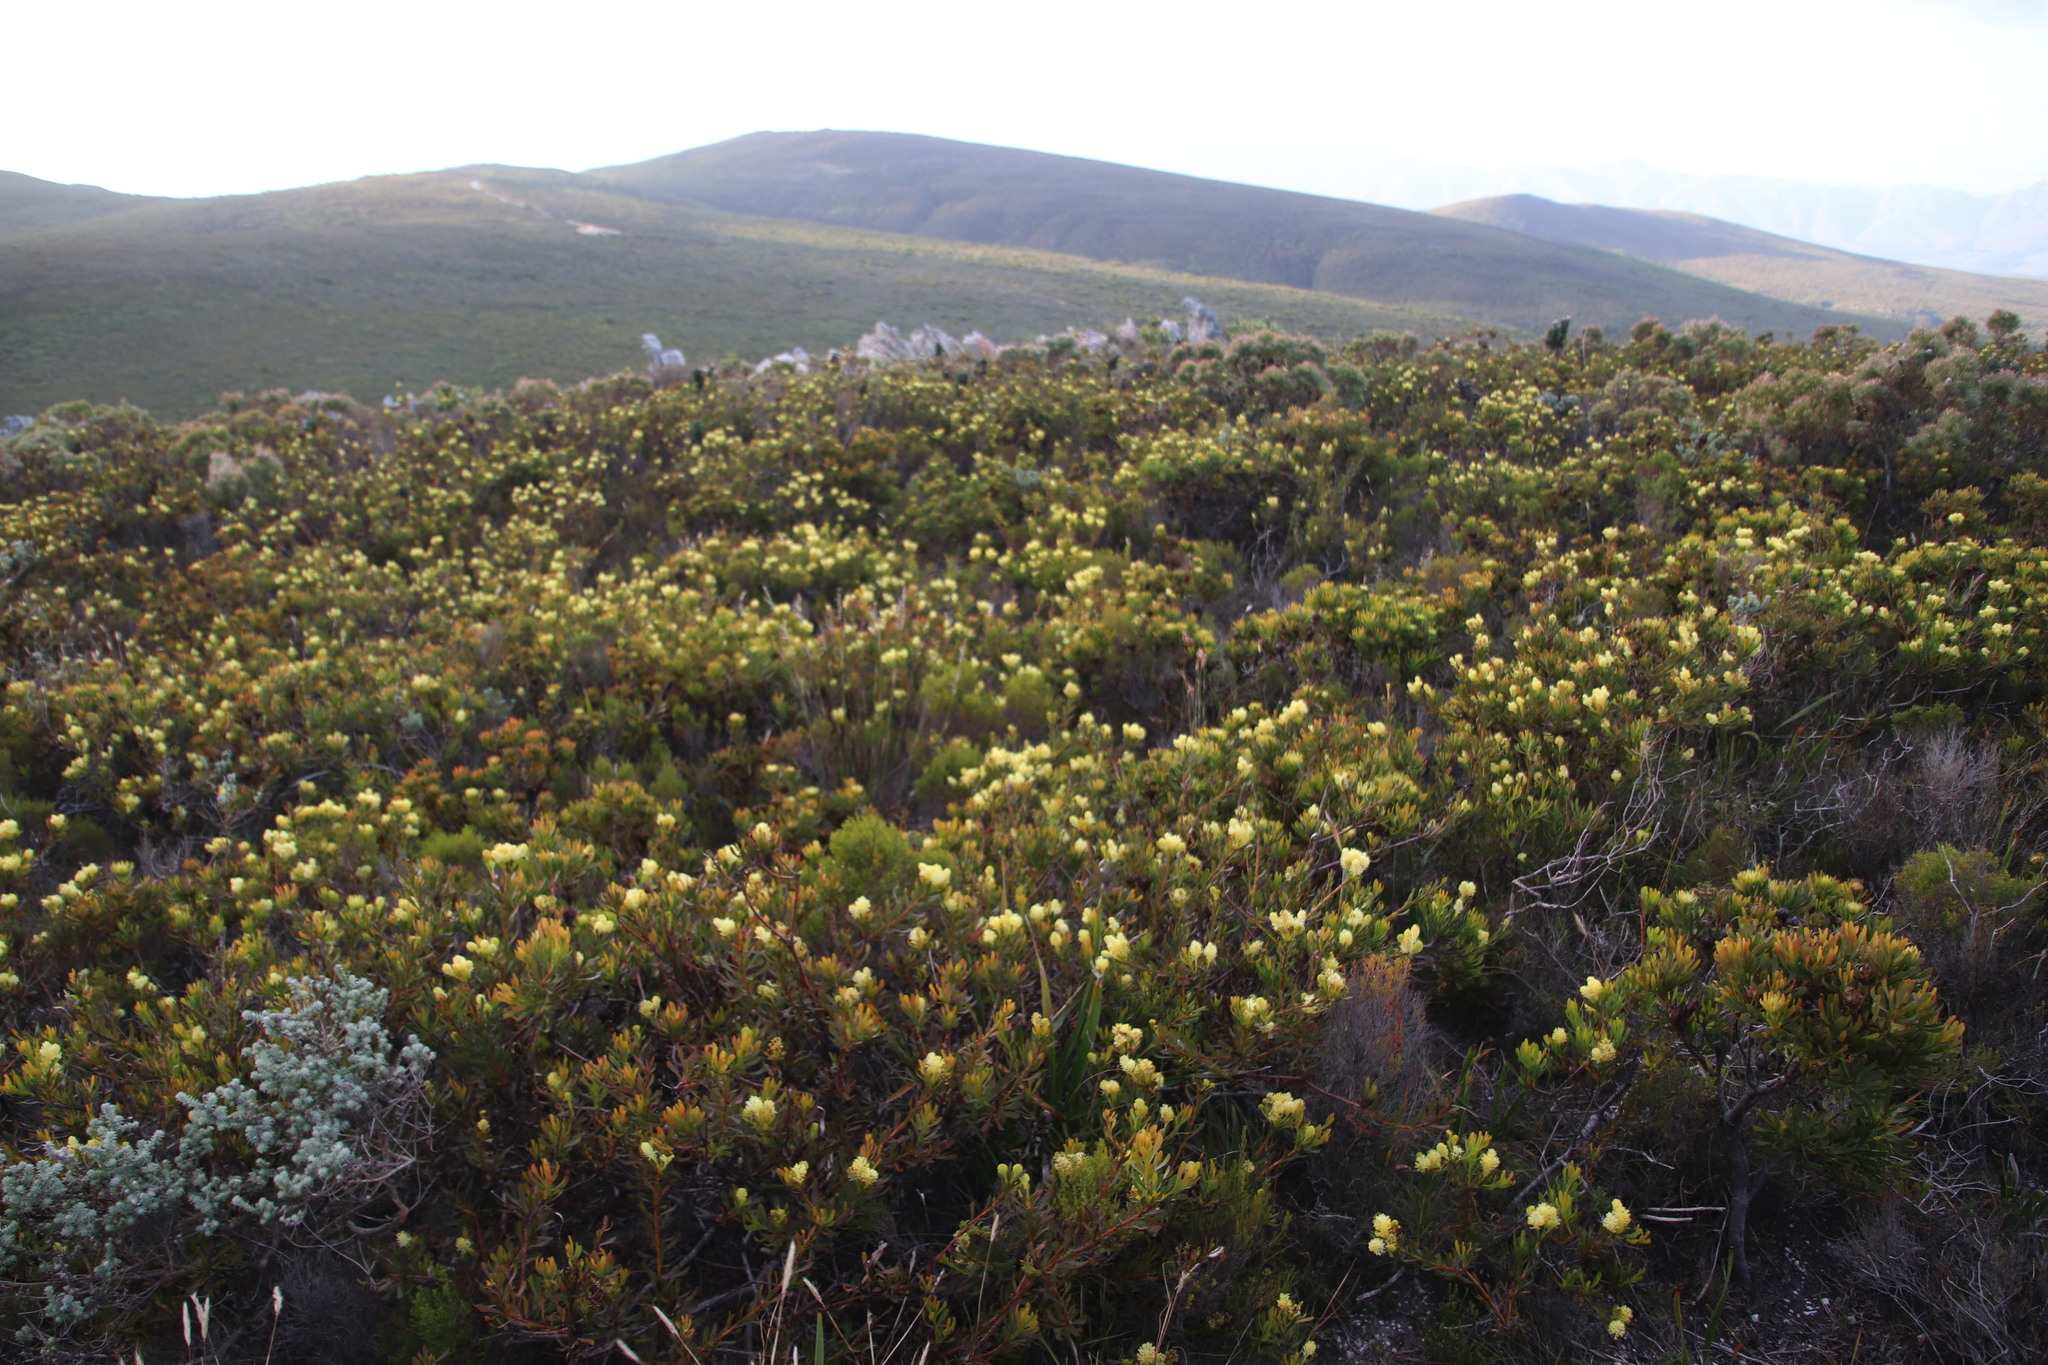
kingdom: Plantae
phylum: Tracheophyta
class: Magnoliopsida
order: Proteales
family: Proteaceae
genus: Aulax
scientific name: Aulax umbellata
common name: Broad-leaf featherbush
